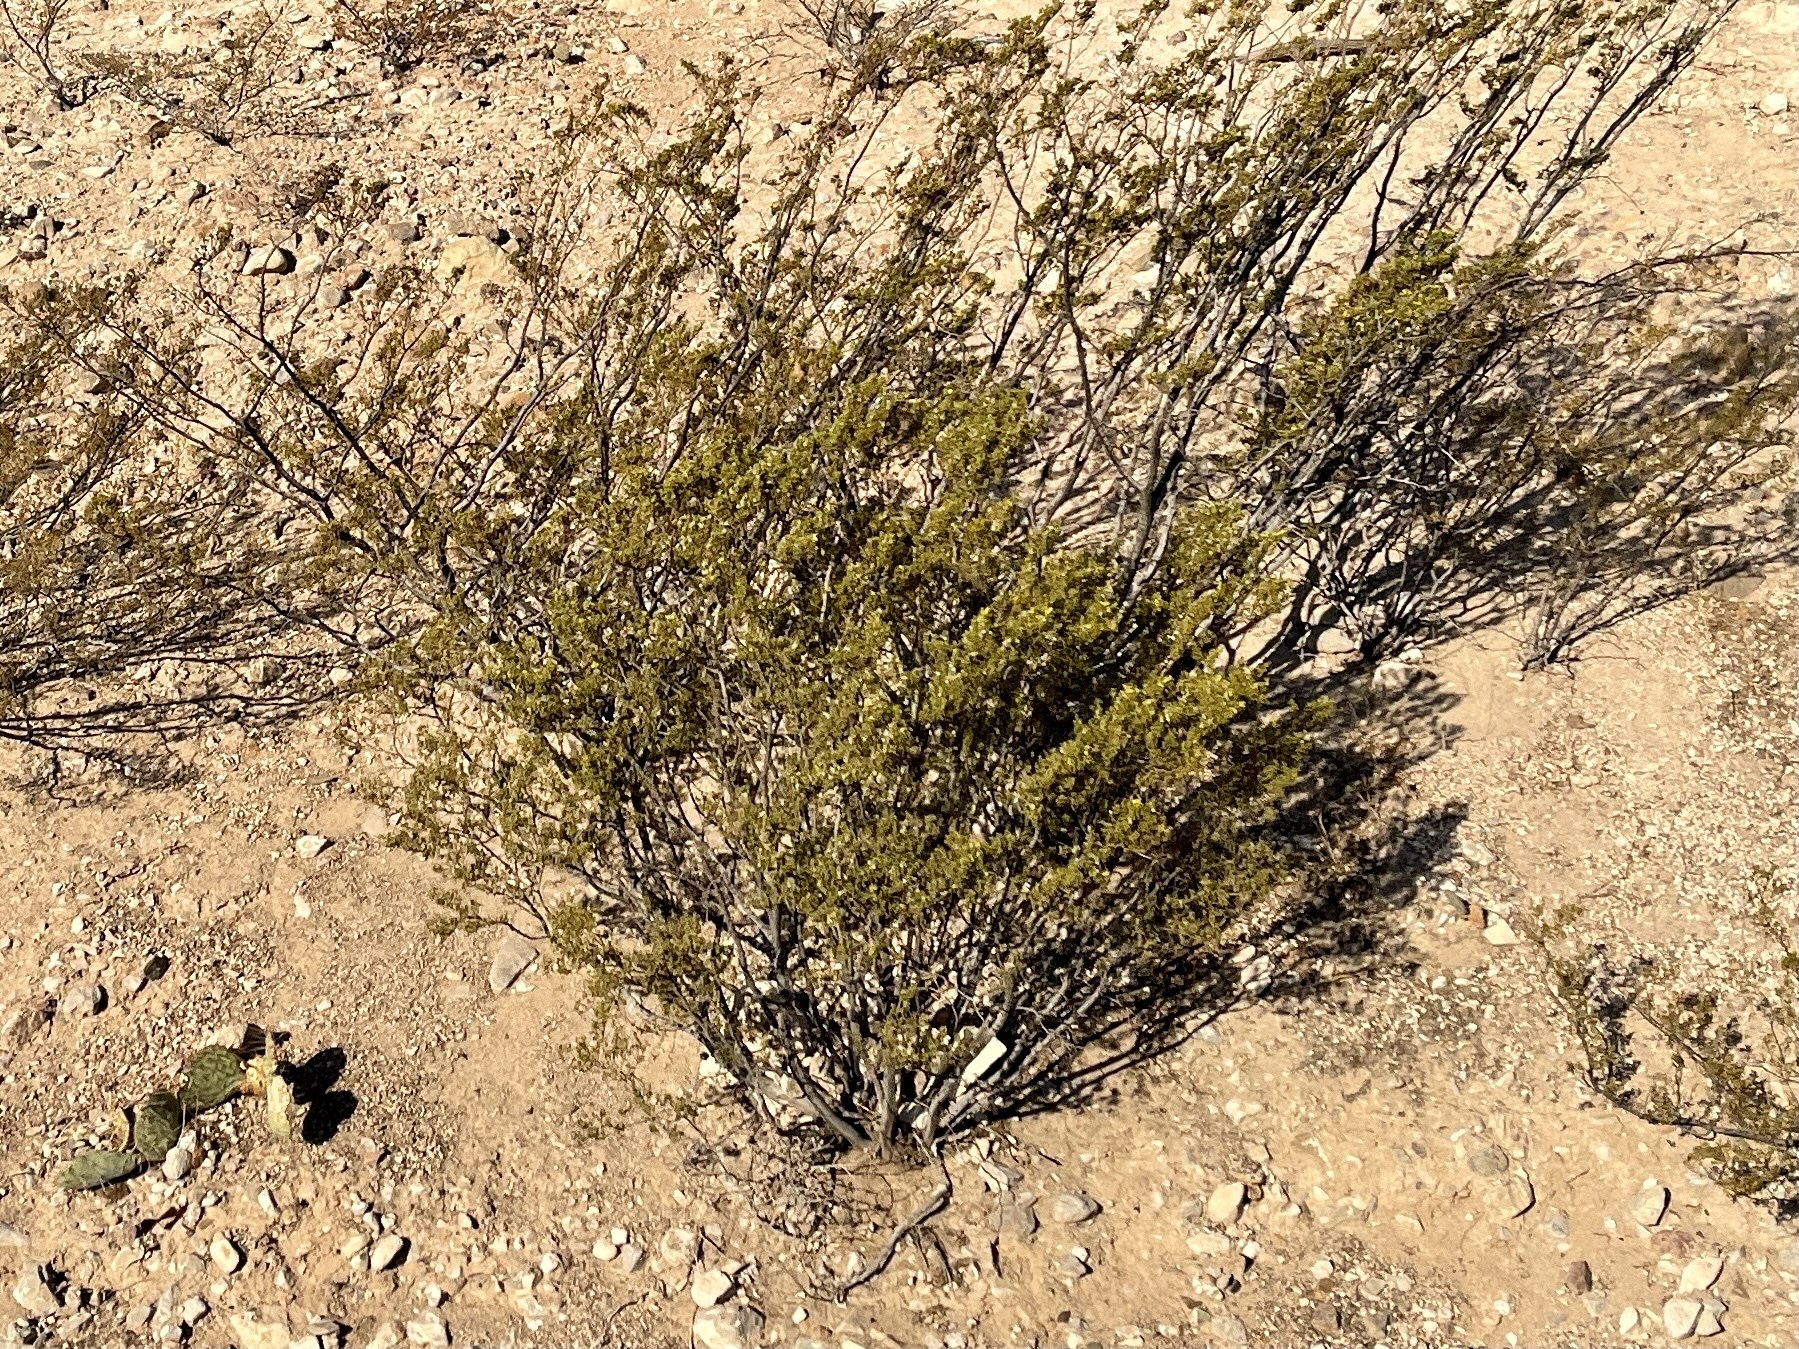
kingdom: Plantae
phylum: Tracheophyta
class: Magnoliopsida
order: Zygophyllales
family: Zygophyllaceae
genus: Larrea
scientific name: Larrea tridentata
